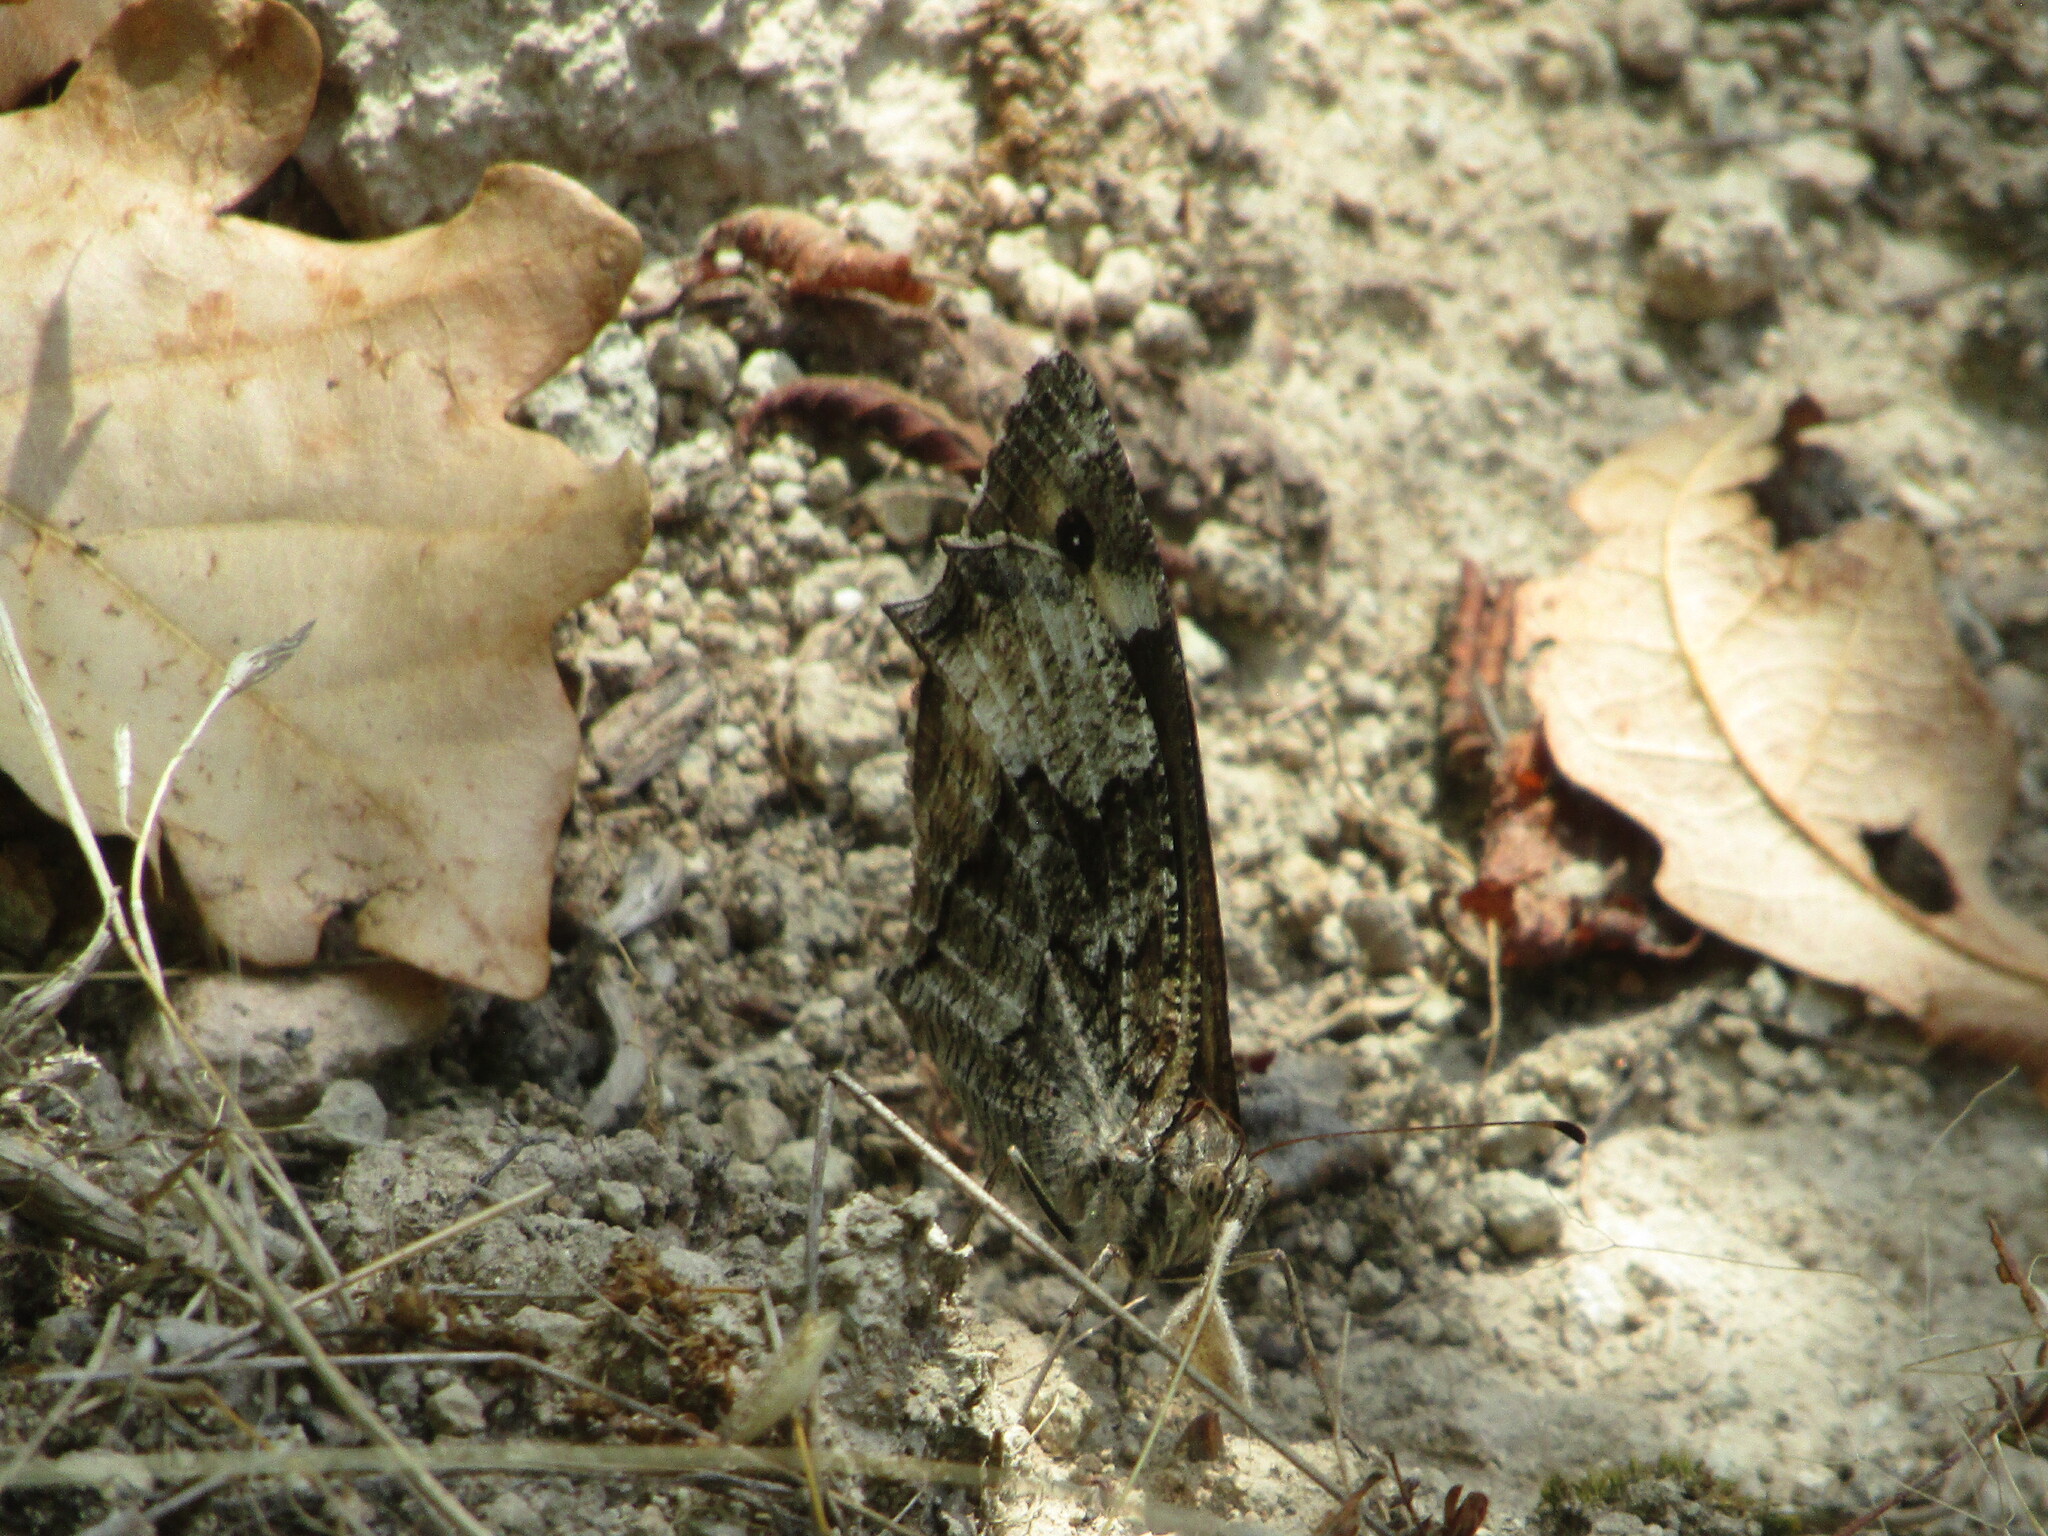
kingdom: Animalia
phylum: Arthropoda
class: Insecta
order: Lepidoptera
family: Nymphalidae
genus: Hipparchia
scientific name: Hipparchia
